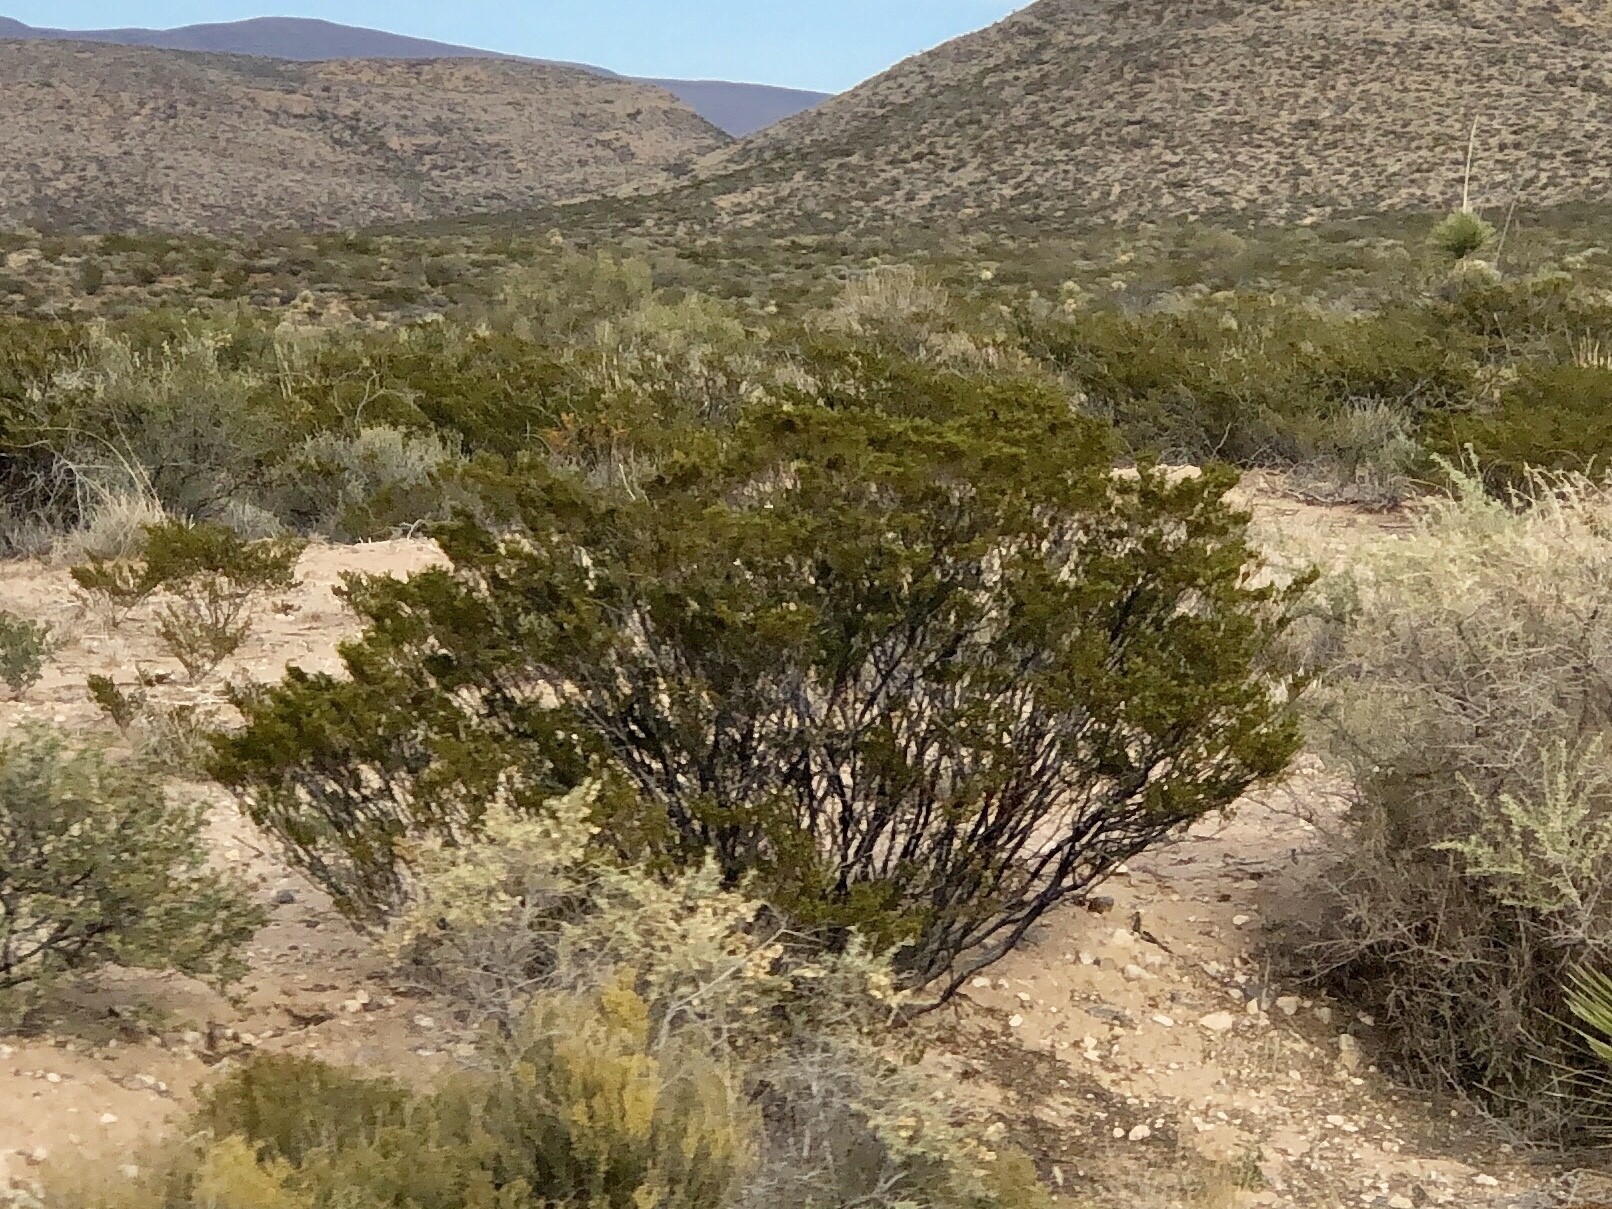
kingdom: Plantae
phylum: Tracheophyta
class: Magnoliopsida
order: Zygophyllales
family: Zygophyllaceae
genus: Larrea
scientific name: Larrea tridentata
